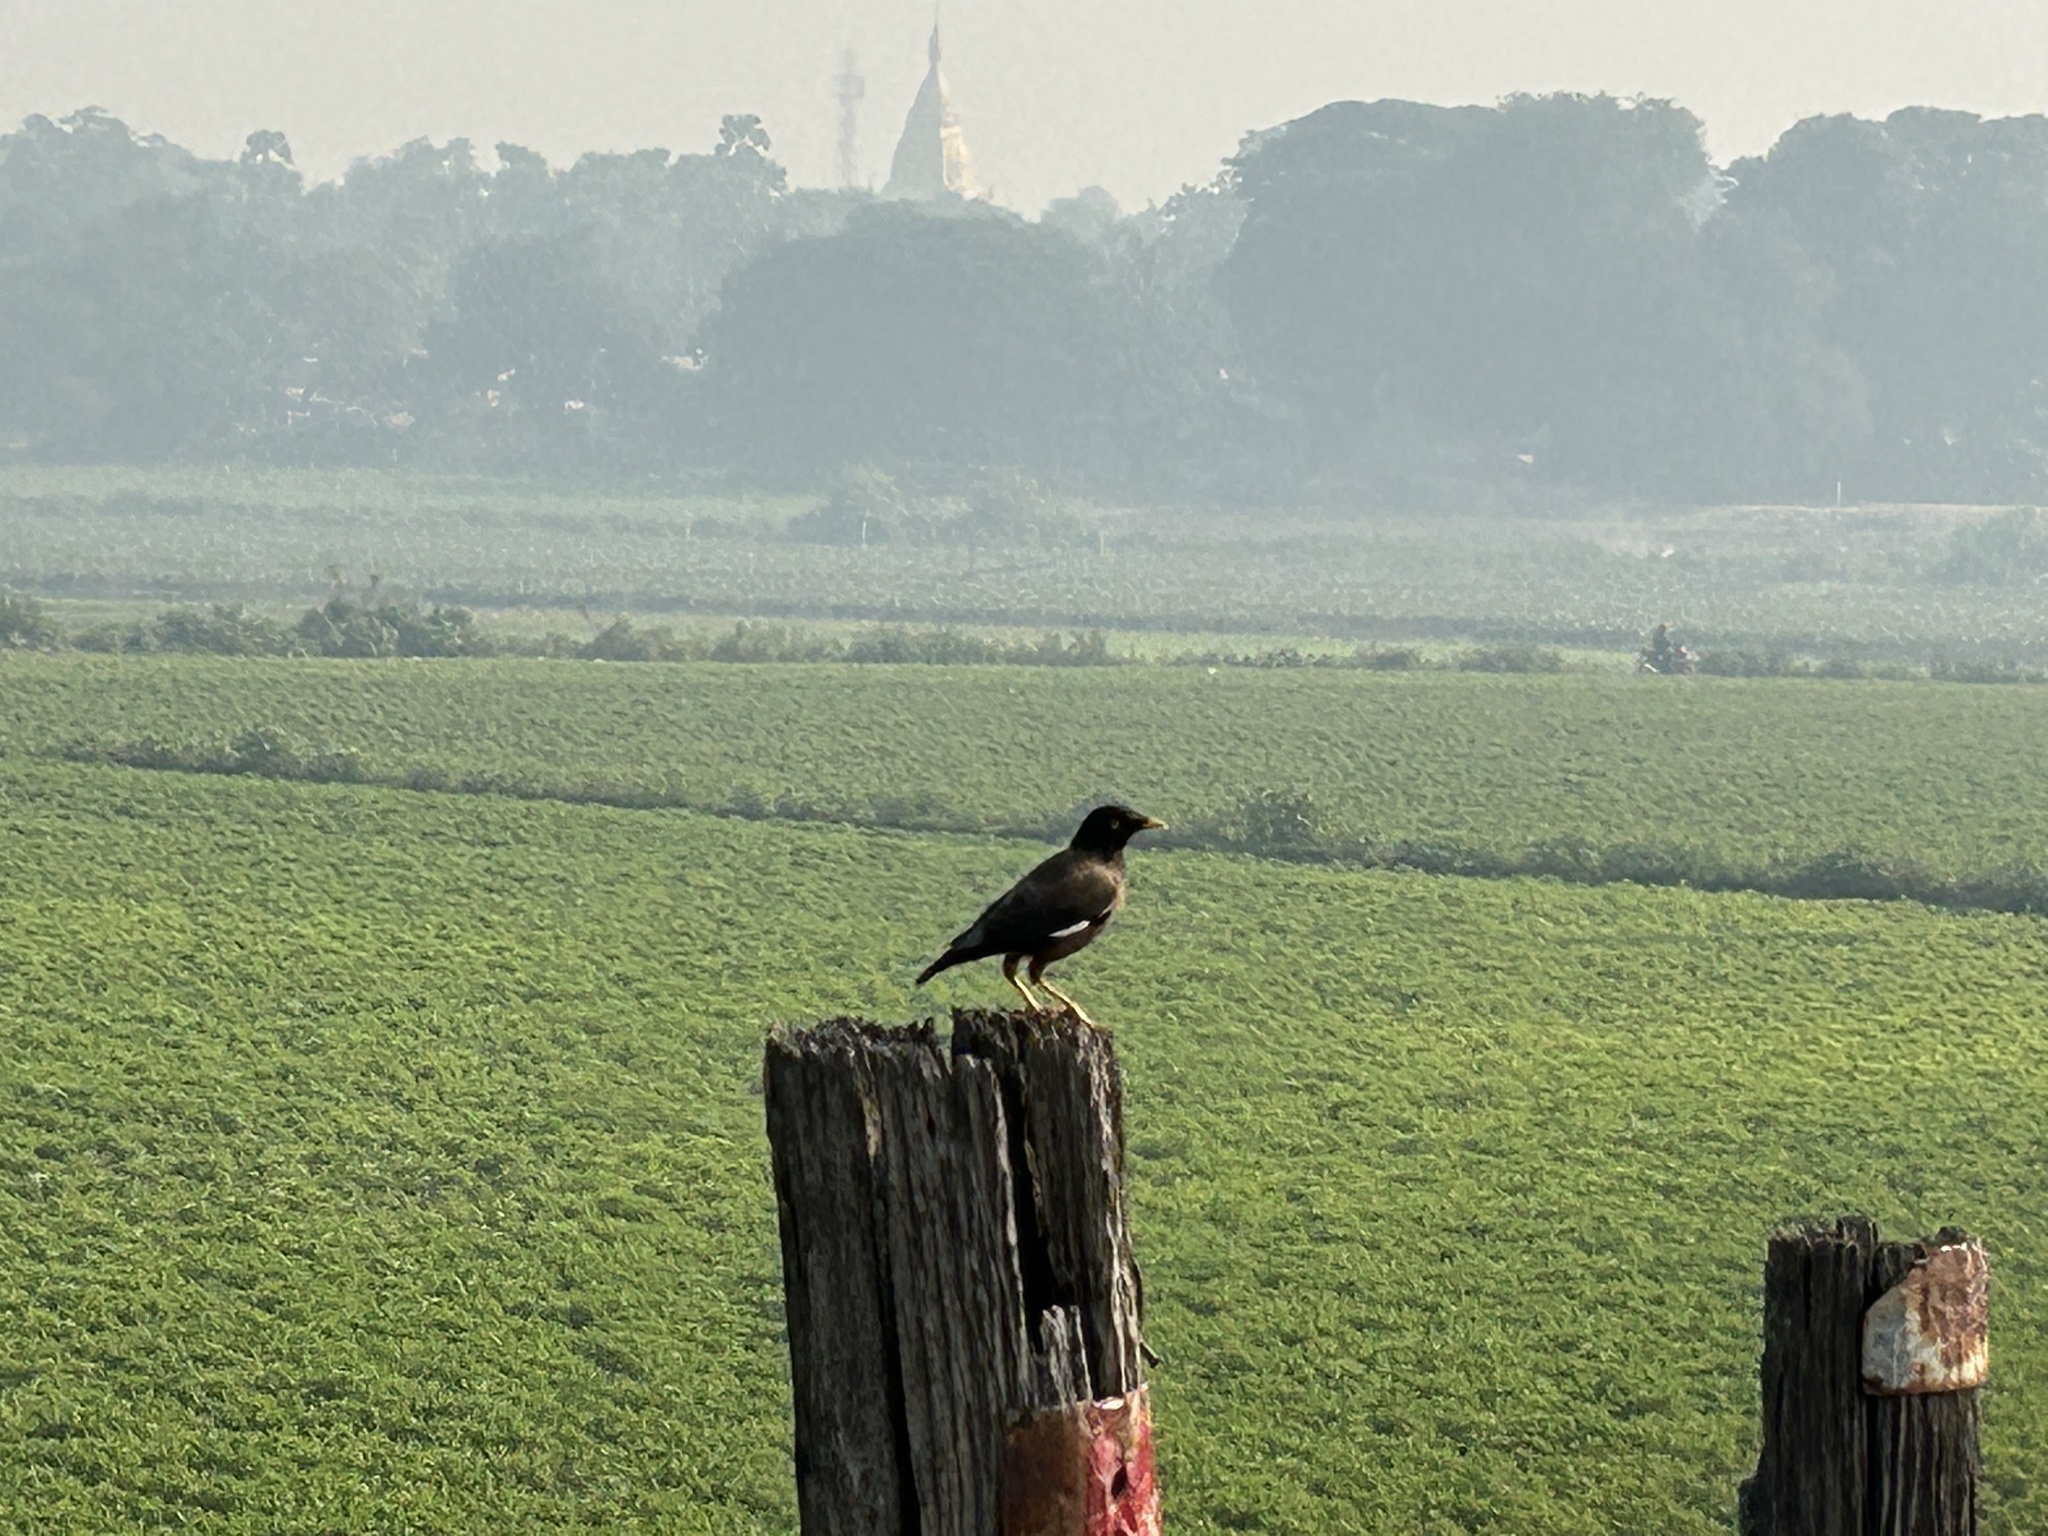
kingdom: Animalia
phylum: Chordata
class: Aves
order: Passeriformes
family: Sturnidae
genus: Acridotheres
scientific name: Acridotheres tristis
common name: Common myna
